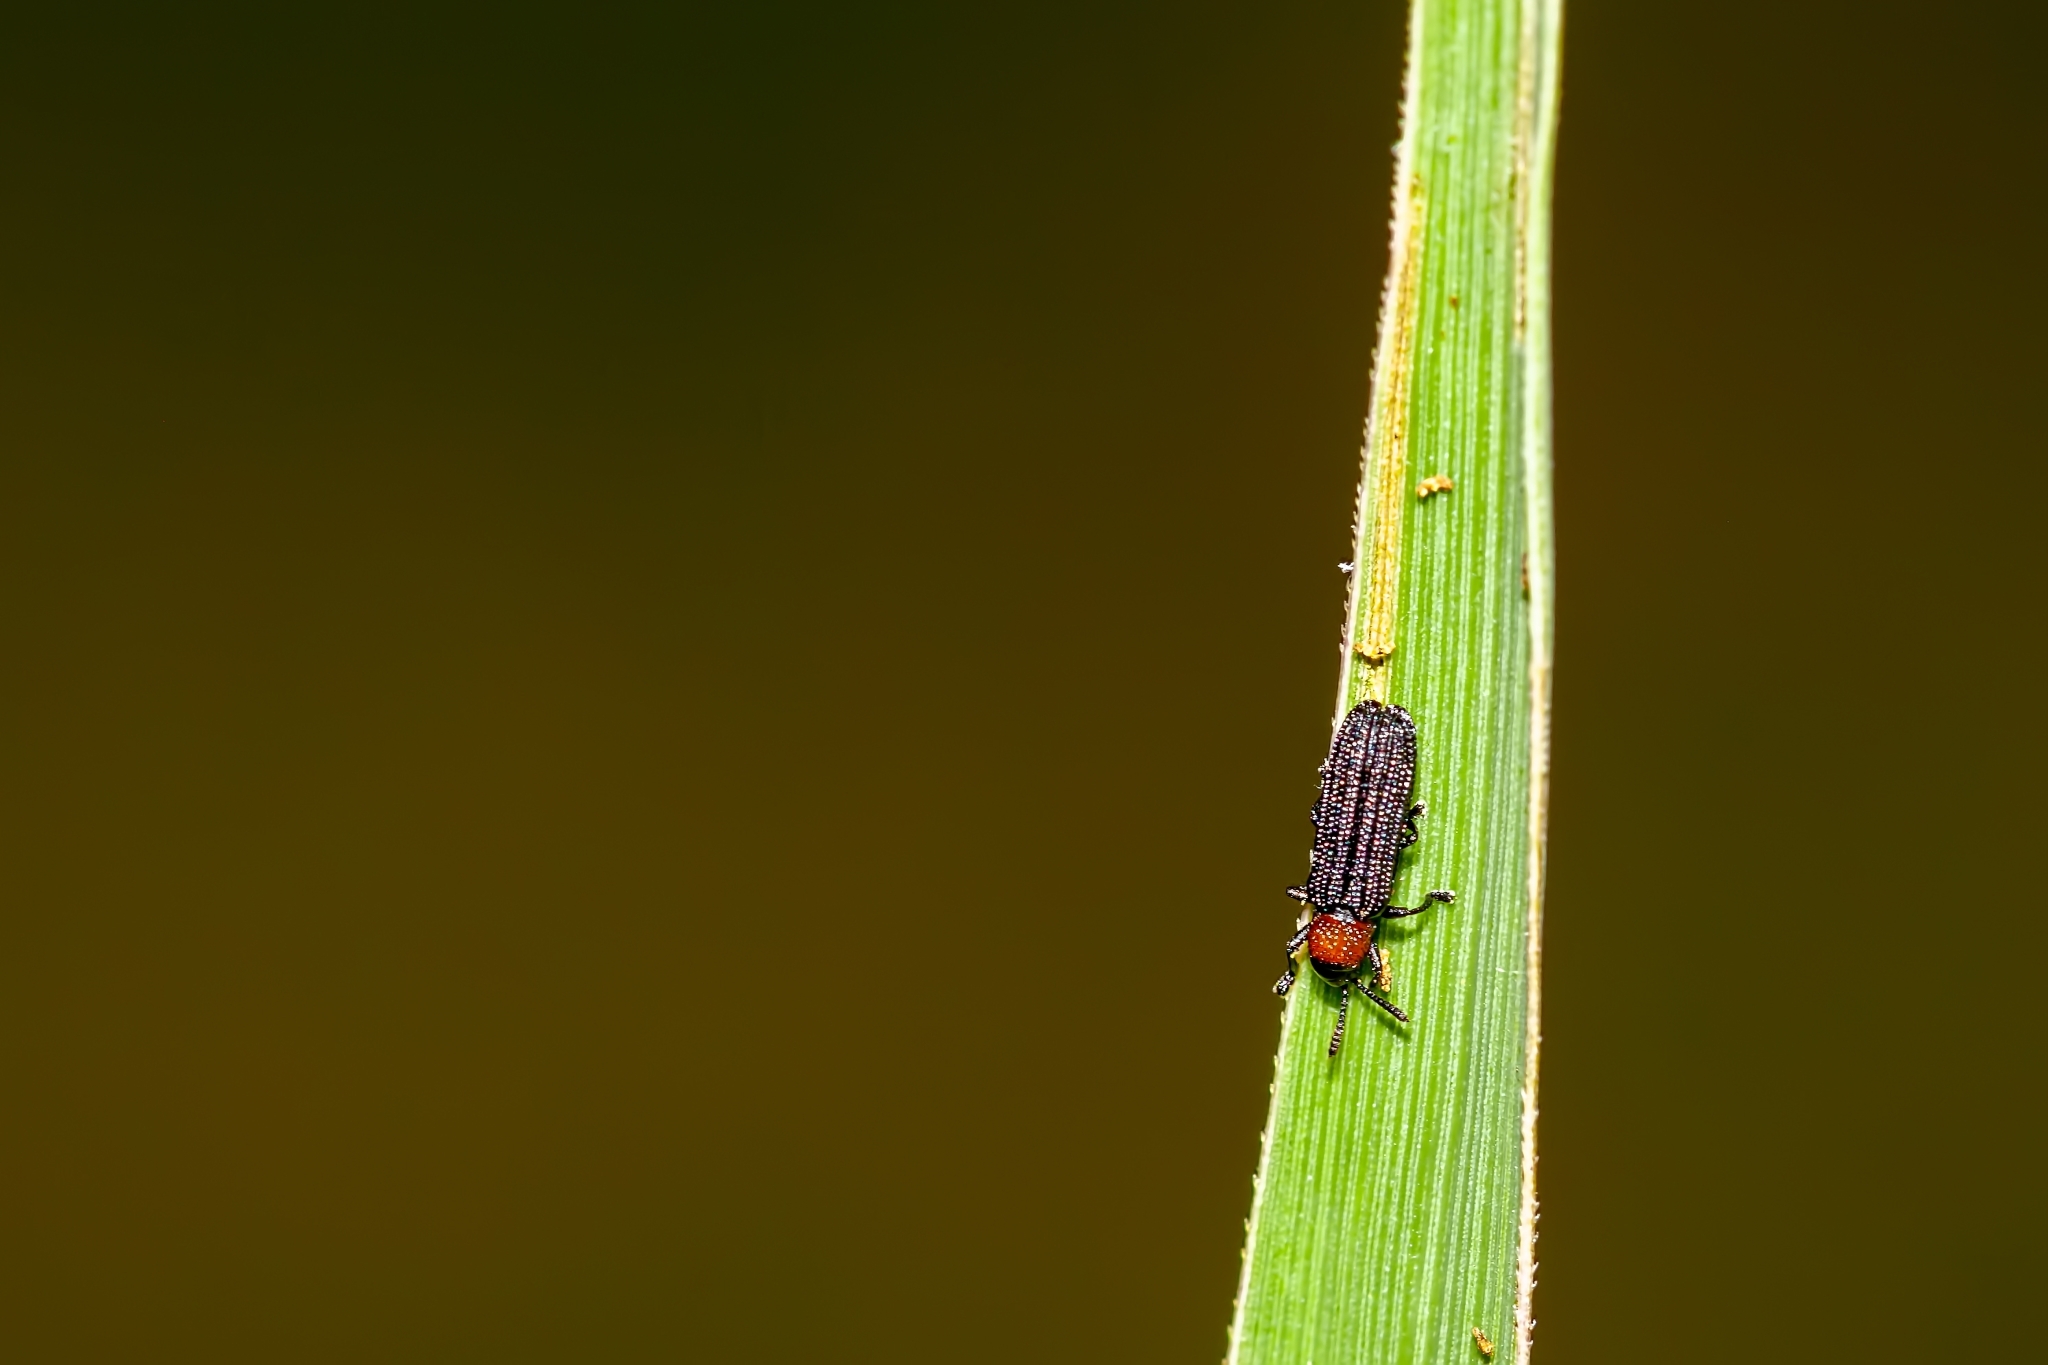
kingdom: Animalia
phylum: Arthropoda
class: Insecta
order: Coleoptera
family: Chrysomelidae
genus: Anisostena
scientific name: Anisostena ariadne
